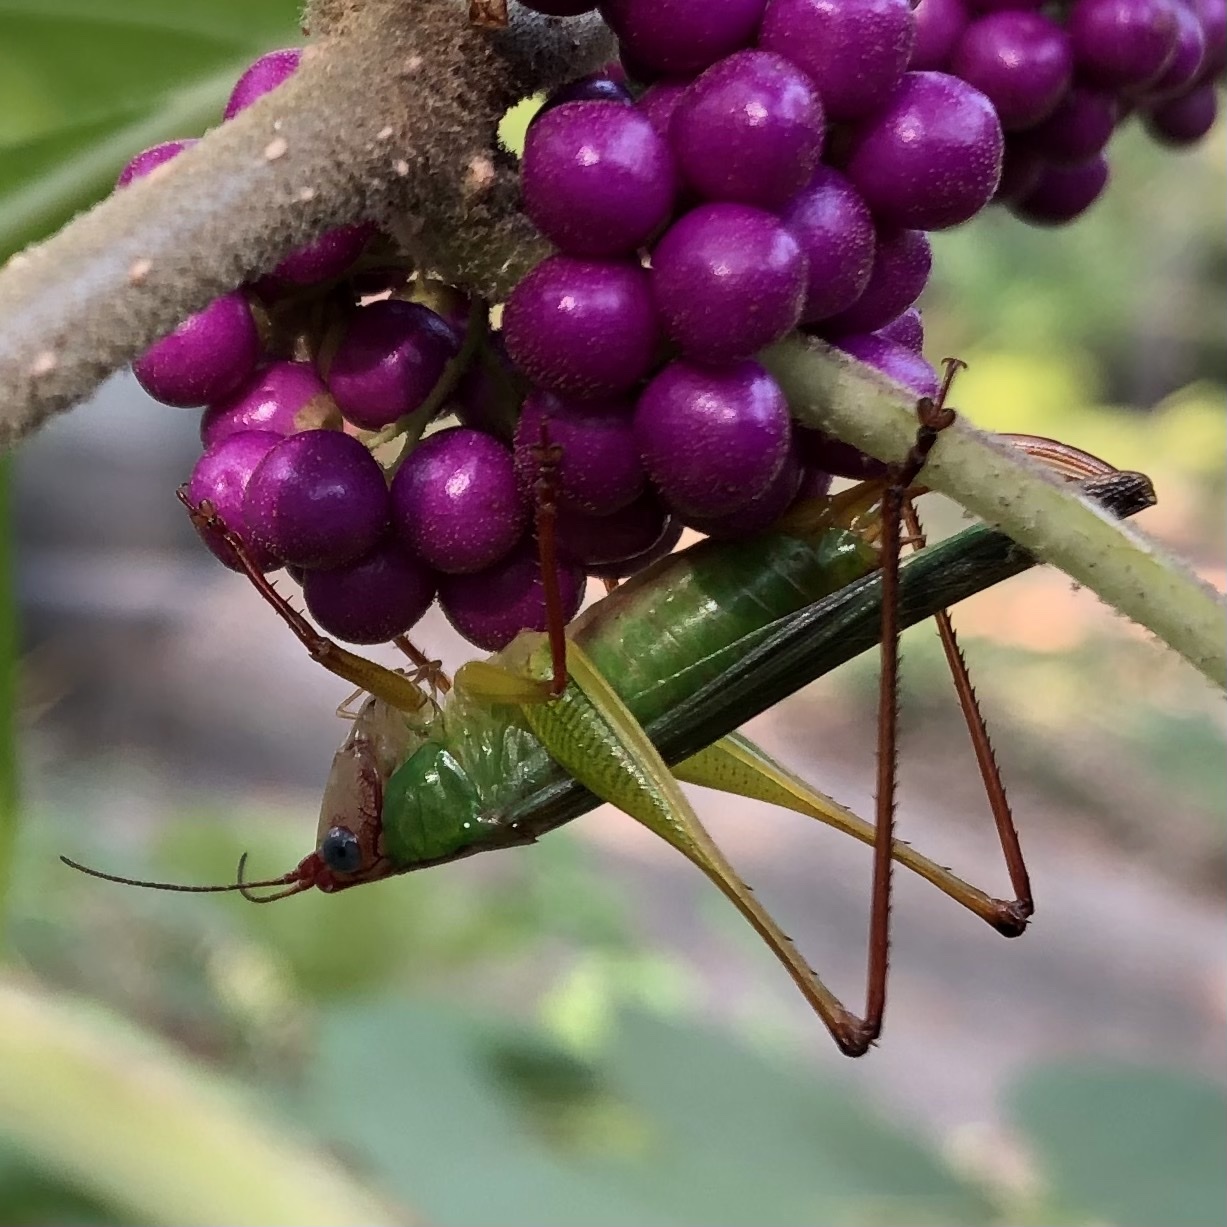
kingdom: Animalia
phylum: Arthropoda
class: Insecta
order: Orthoptera
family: Tettigoniidae
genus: Orchelimum
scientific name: Orchelimum pulchellum
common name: Handsome meadow katydid
